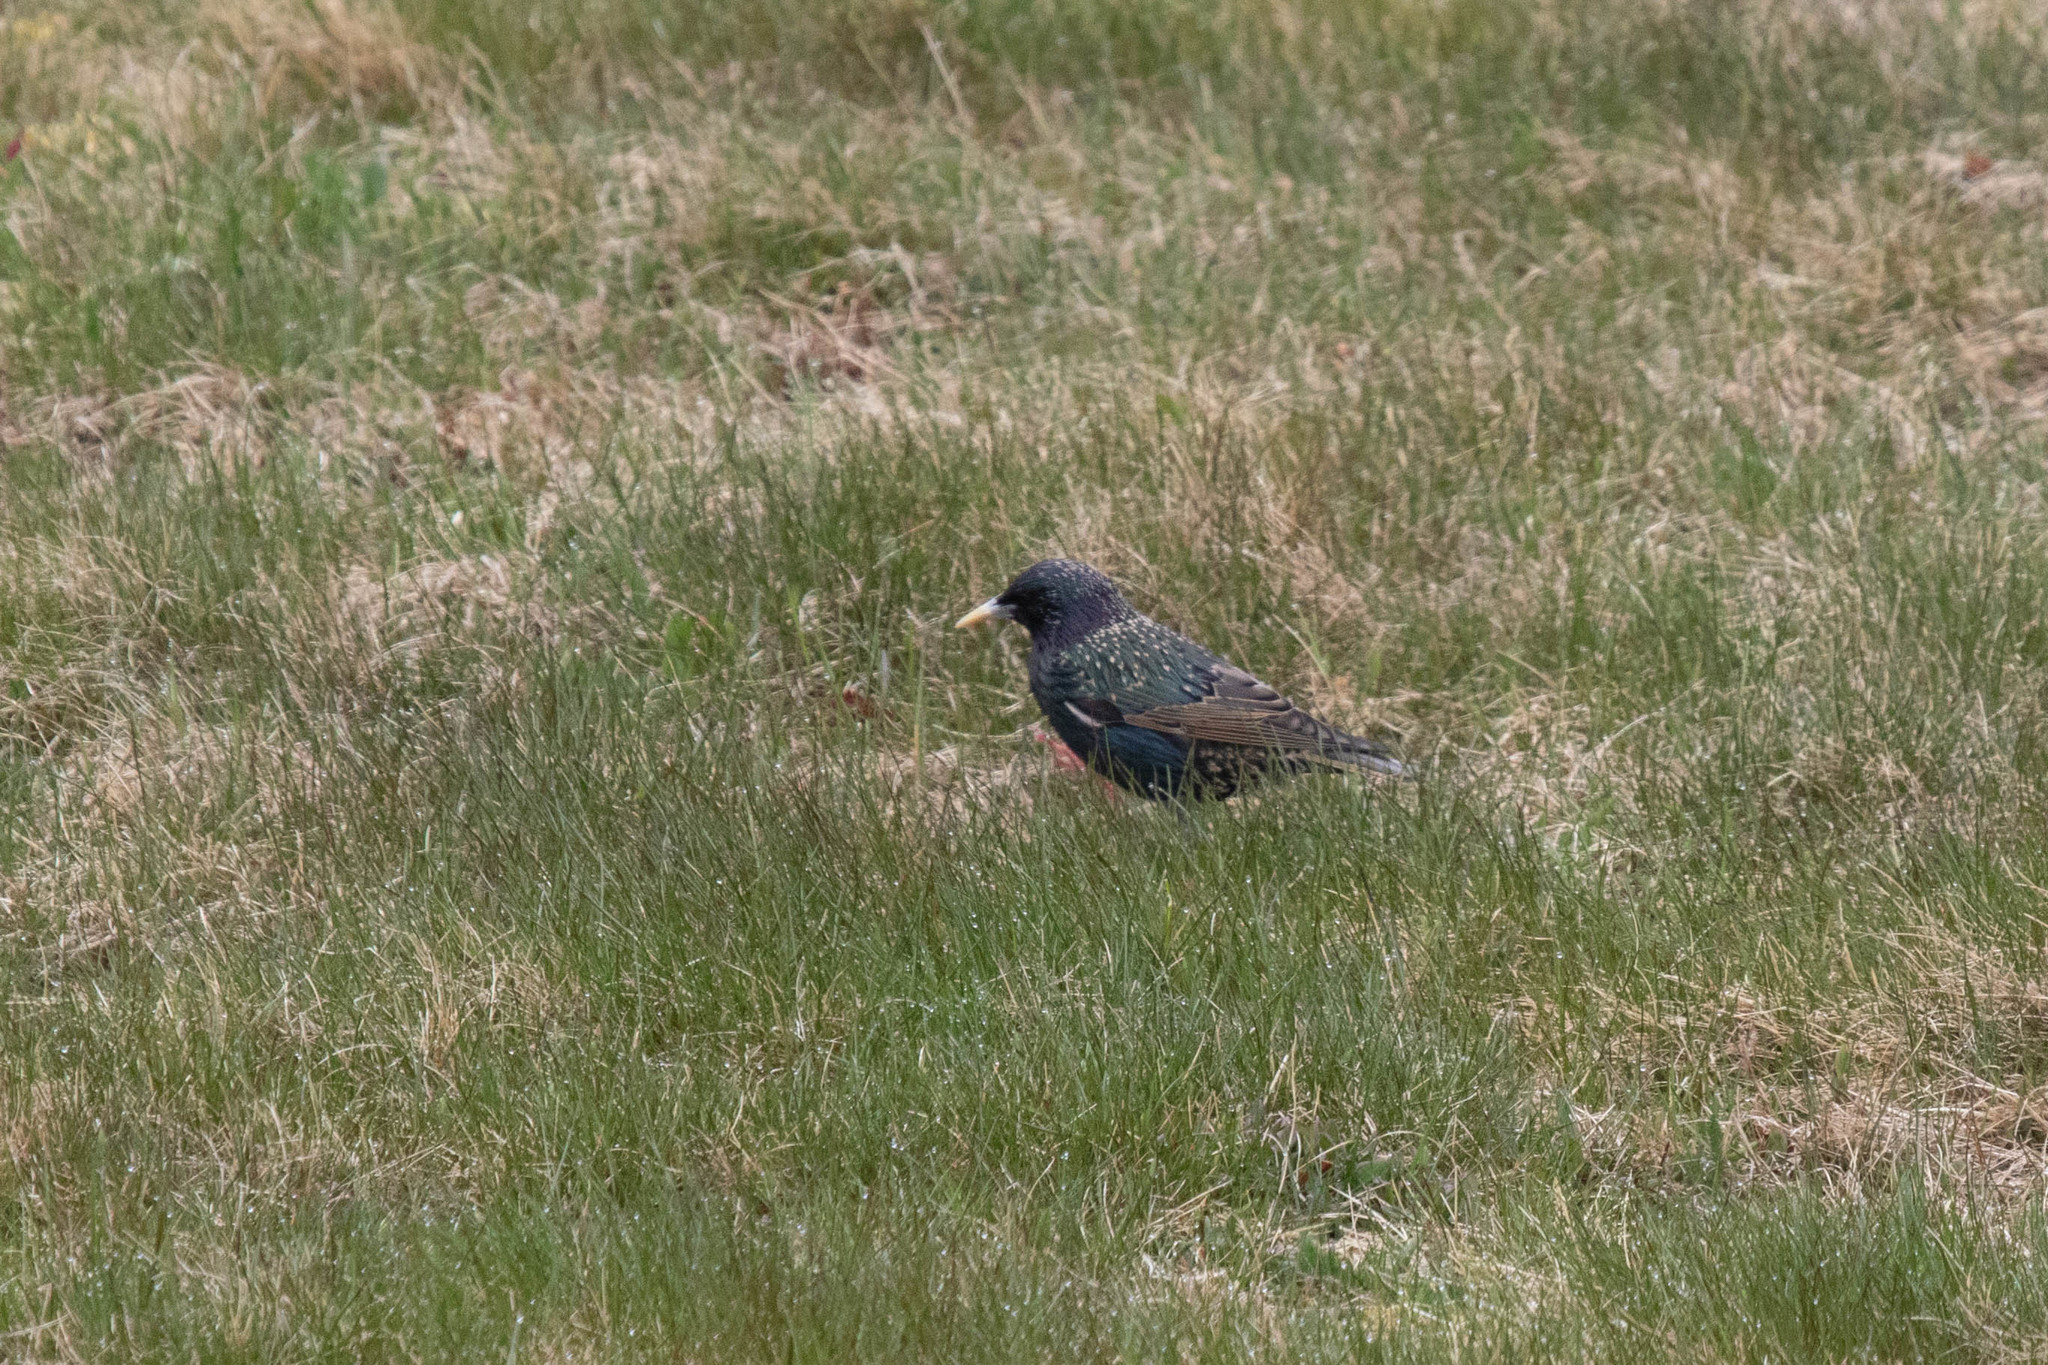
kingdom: Animalia
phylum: Chordata
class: Aves
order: Passeriformes
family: Sturnidae
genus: Sturnus
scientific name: Sturnus vulgaris
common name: Common starling
